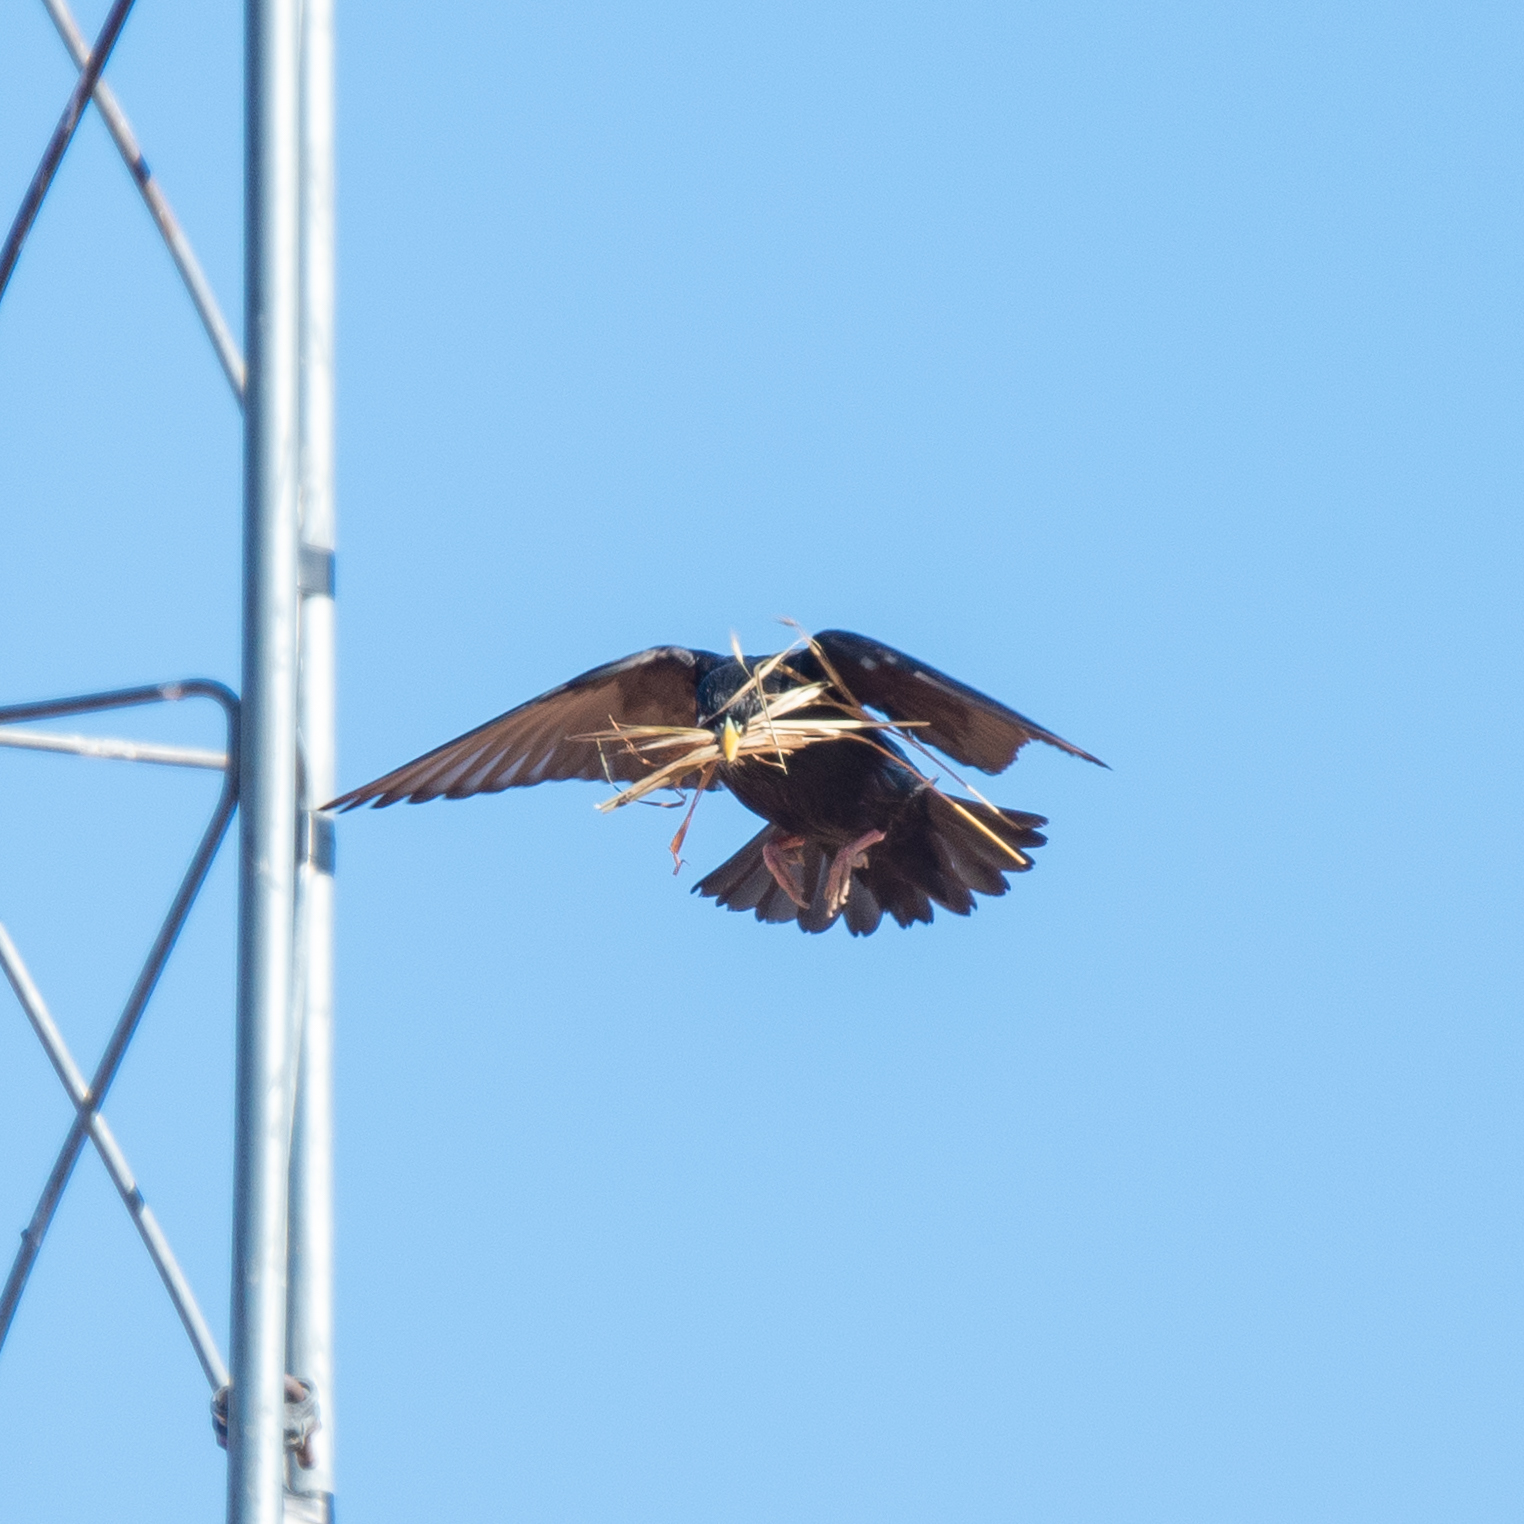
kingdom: Animalia
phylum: Chordata
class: Aves
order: Passeriformes
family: Sturnidae
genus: Sturnus
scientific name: Sturnus unicolor
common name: Spotless starling
